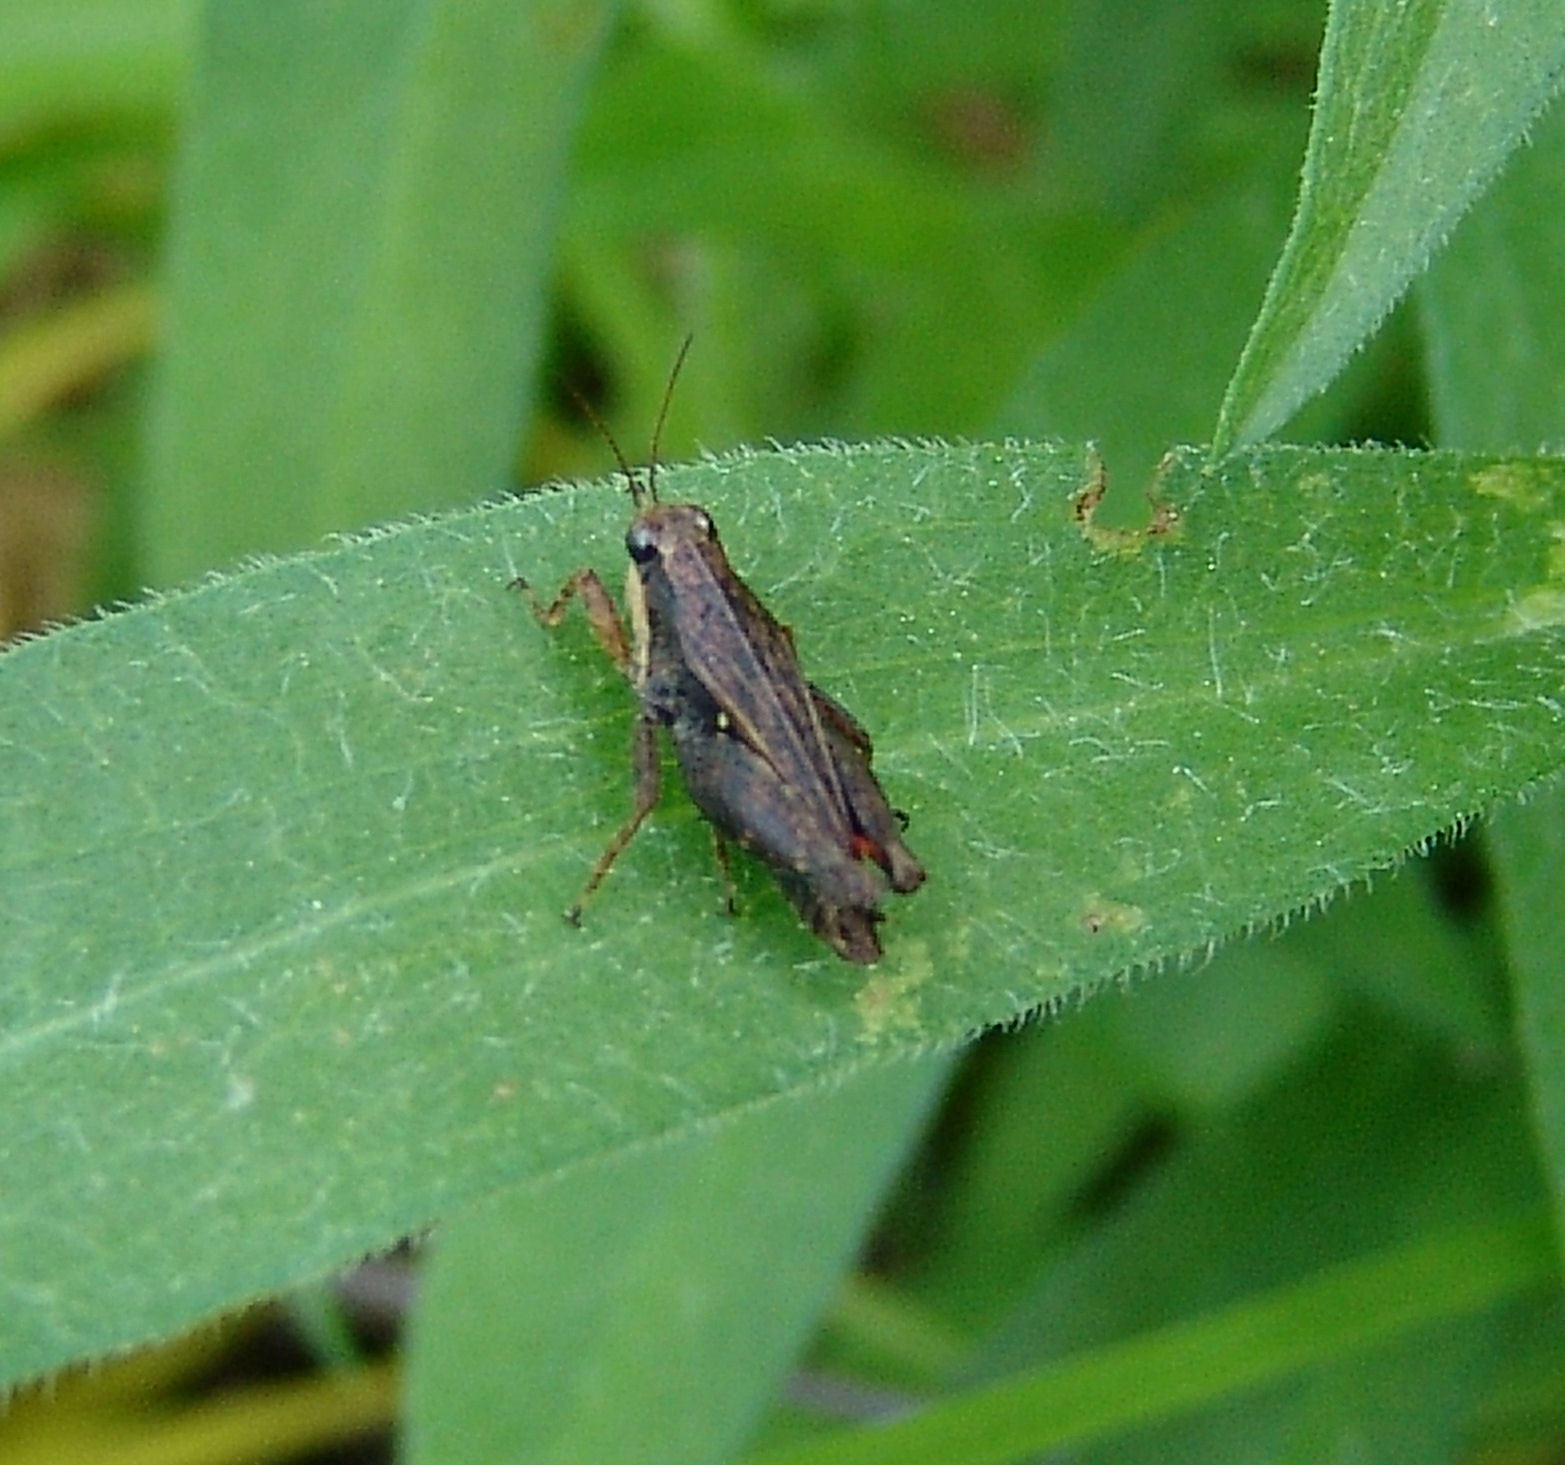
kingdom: Animalia
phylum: Arthropoda
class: Insecta
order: Orthoptera
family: Tetrigidae
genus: Tettigidea
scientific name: Tettigidea laterale
